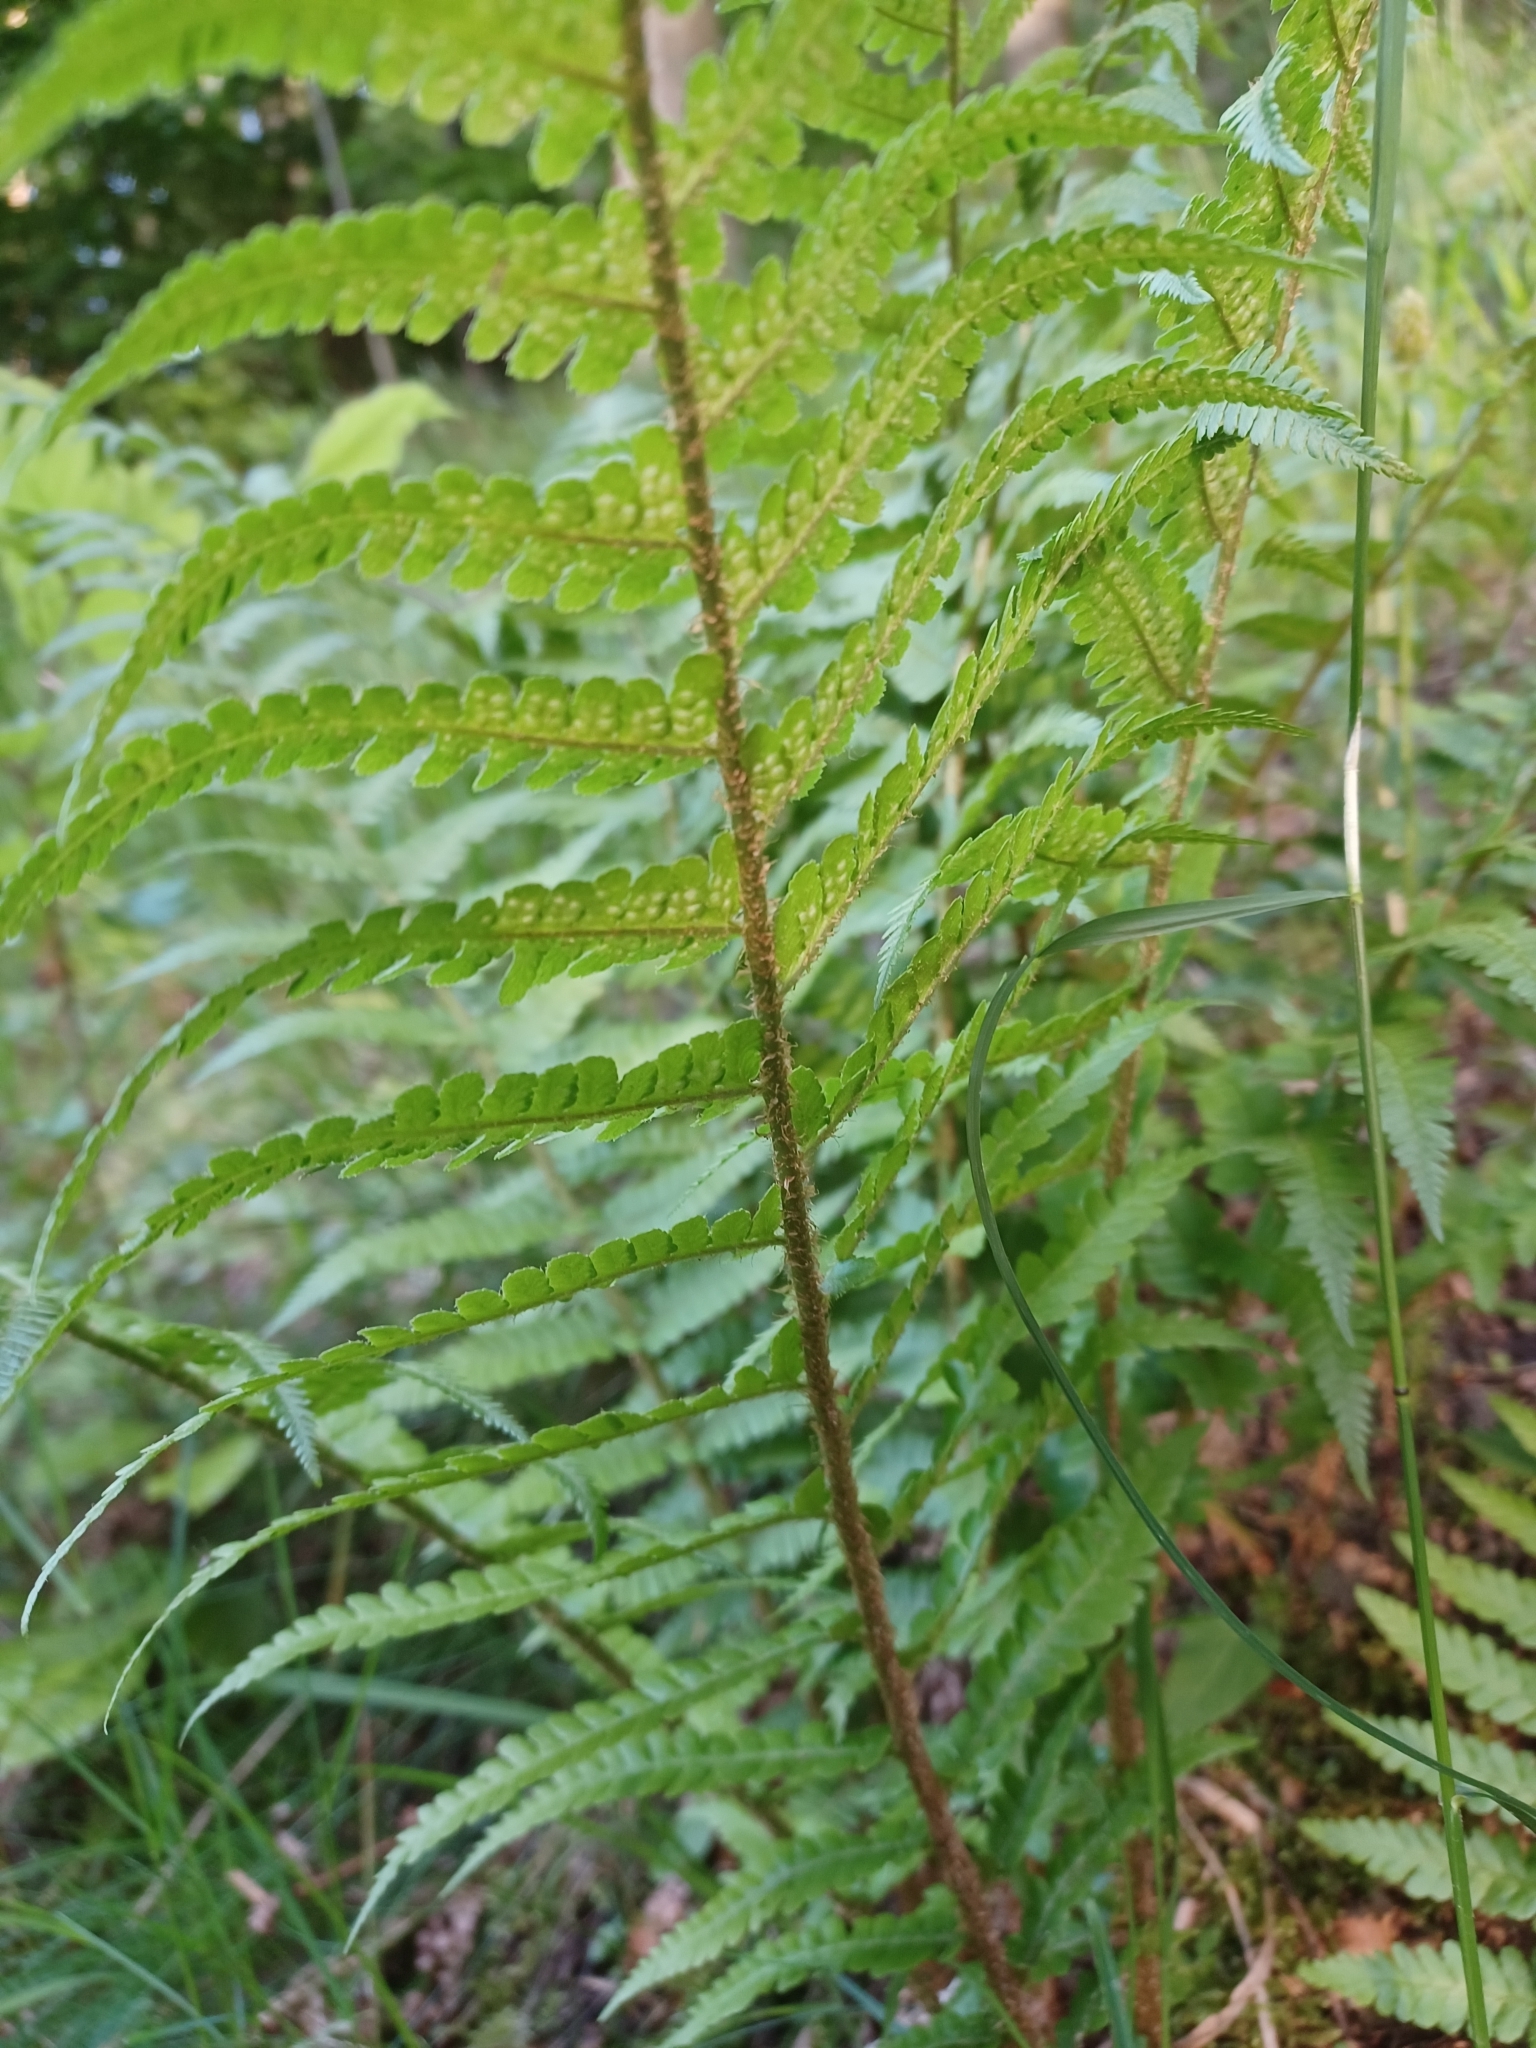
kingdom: Plantae
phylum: Tracheophyta
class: Polypodiopsida
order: Polypodiales
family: Dryopteridaceae
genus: Dryopteris
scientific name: Dryopteris filix-mas
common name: Male fern
